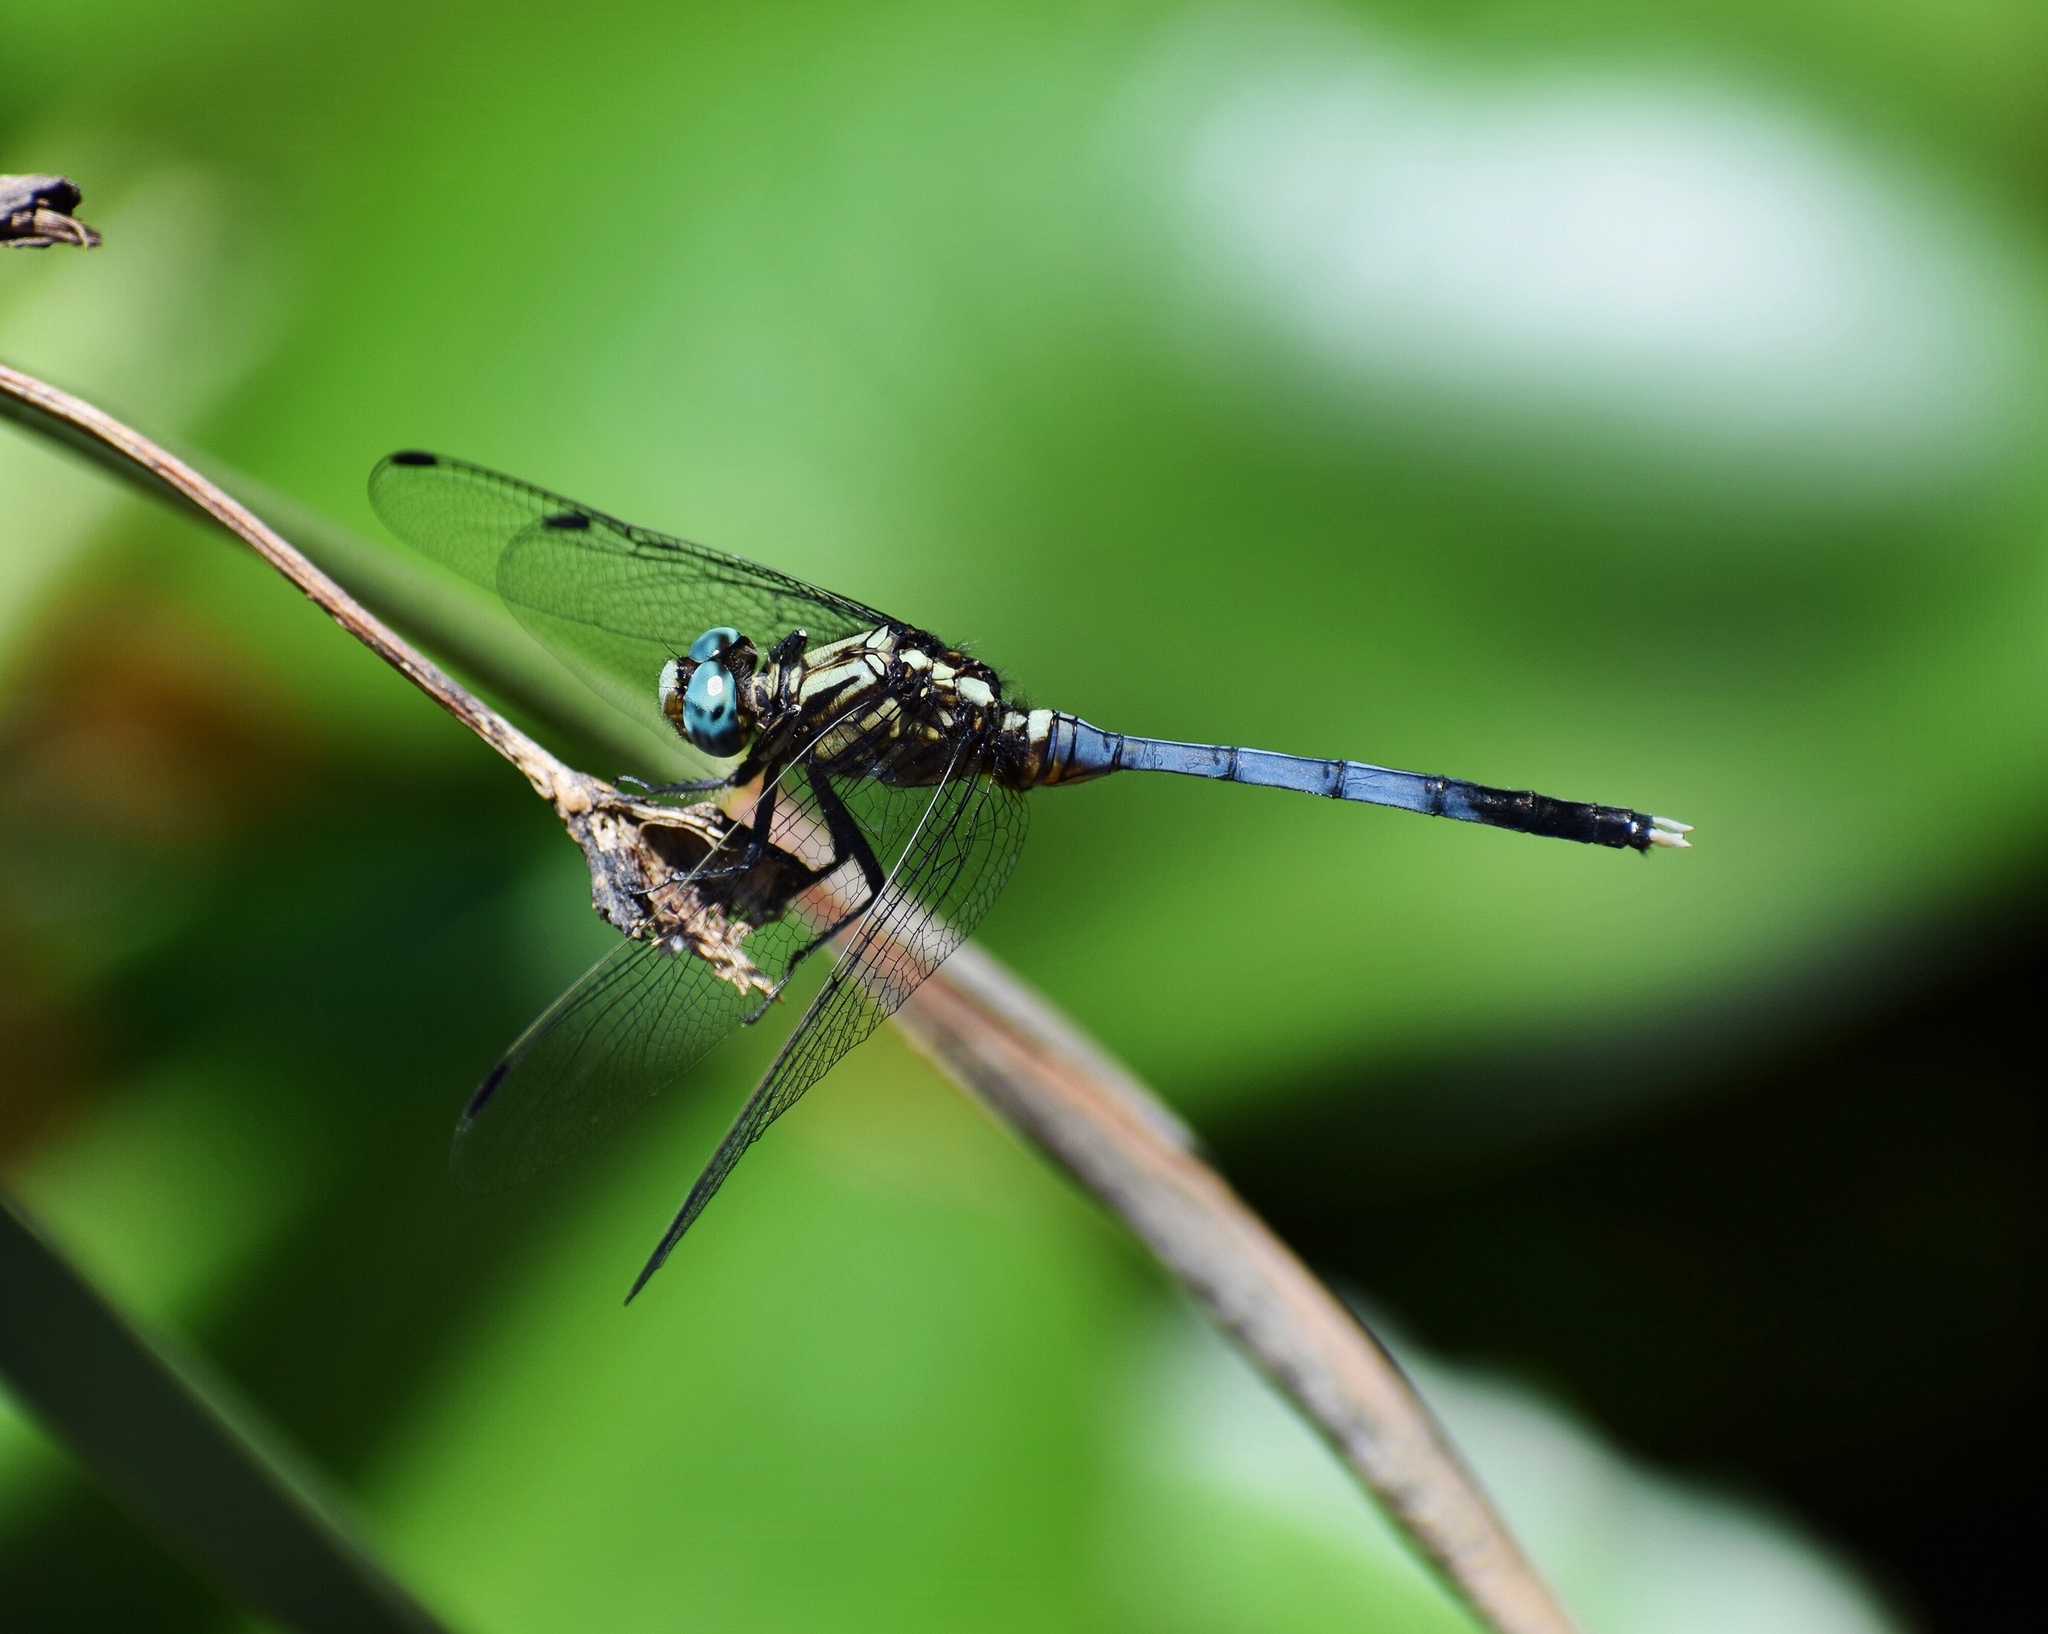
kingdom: Animalia
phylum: Arthropoda
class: Insecta
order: Odonata
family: Libellulidae
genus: Orthetrum
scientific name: Orthetrum julia
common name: Julia skimmer
